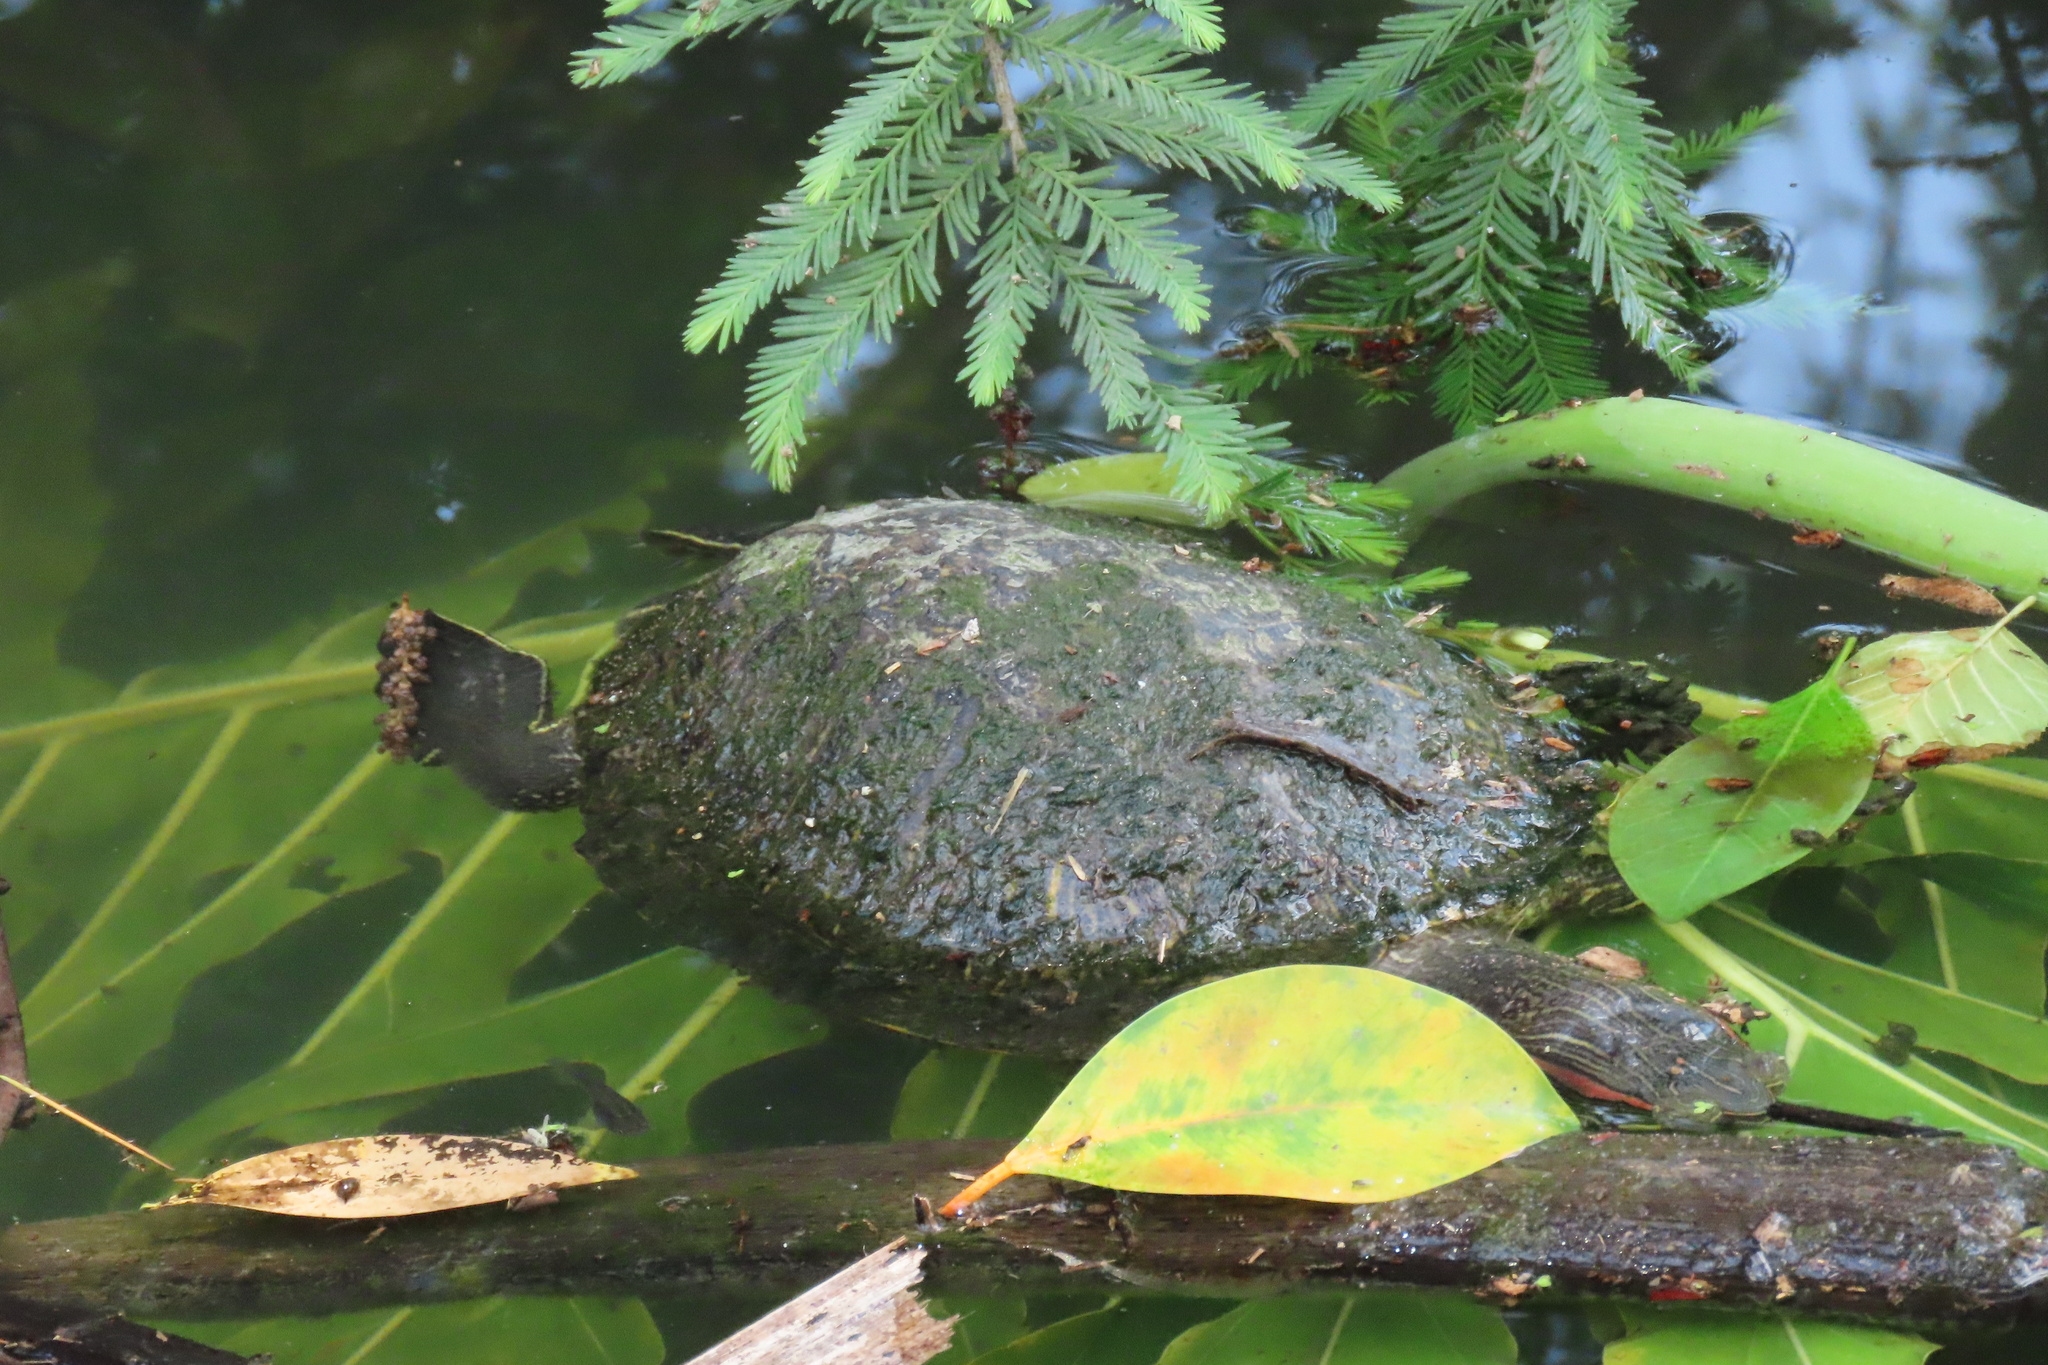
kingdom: Animalia
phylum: Chordata
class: Testudines
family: Emydidae
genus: Trachemys
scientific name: Trachemys scripta
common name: Slider
